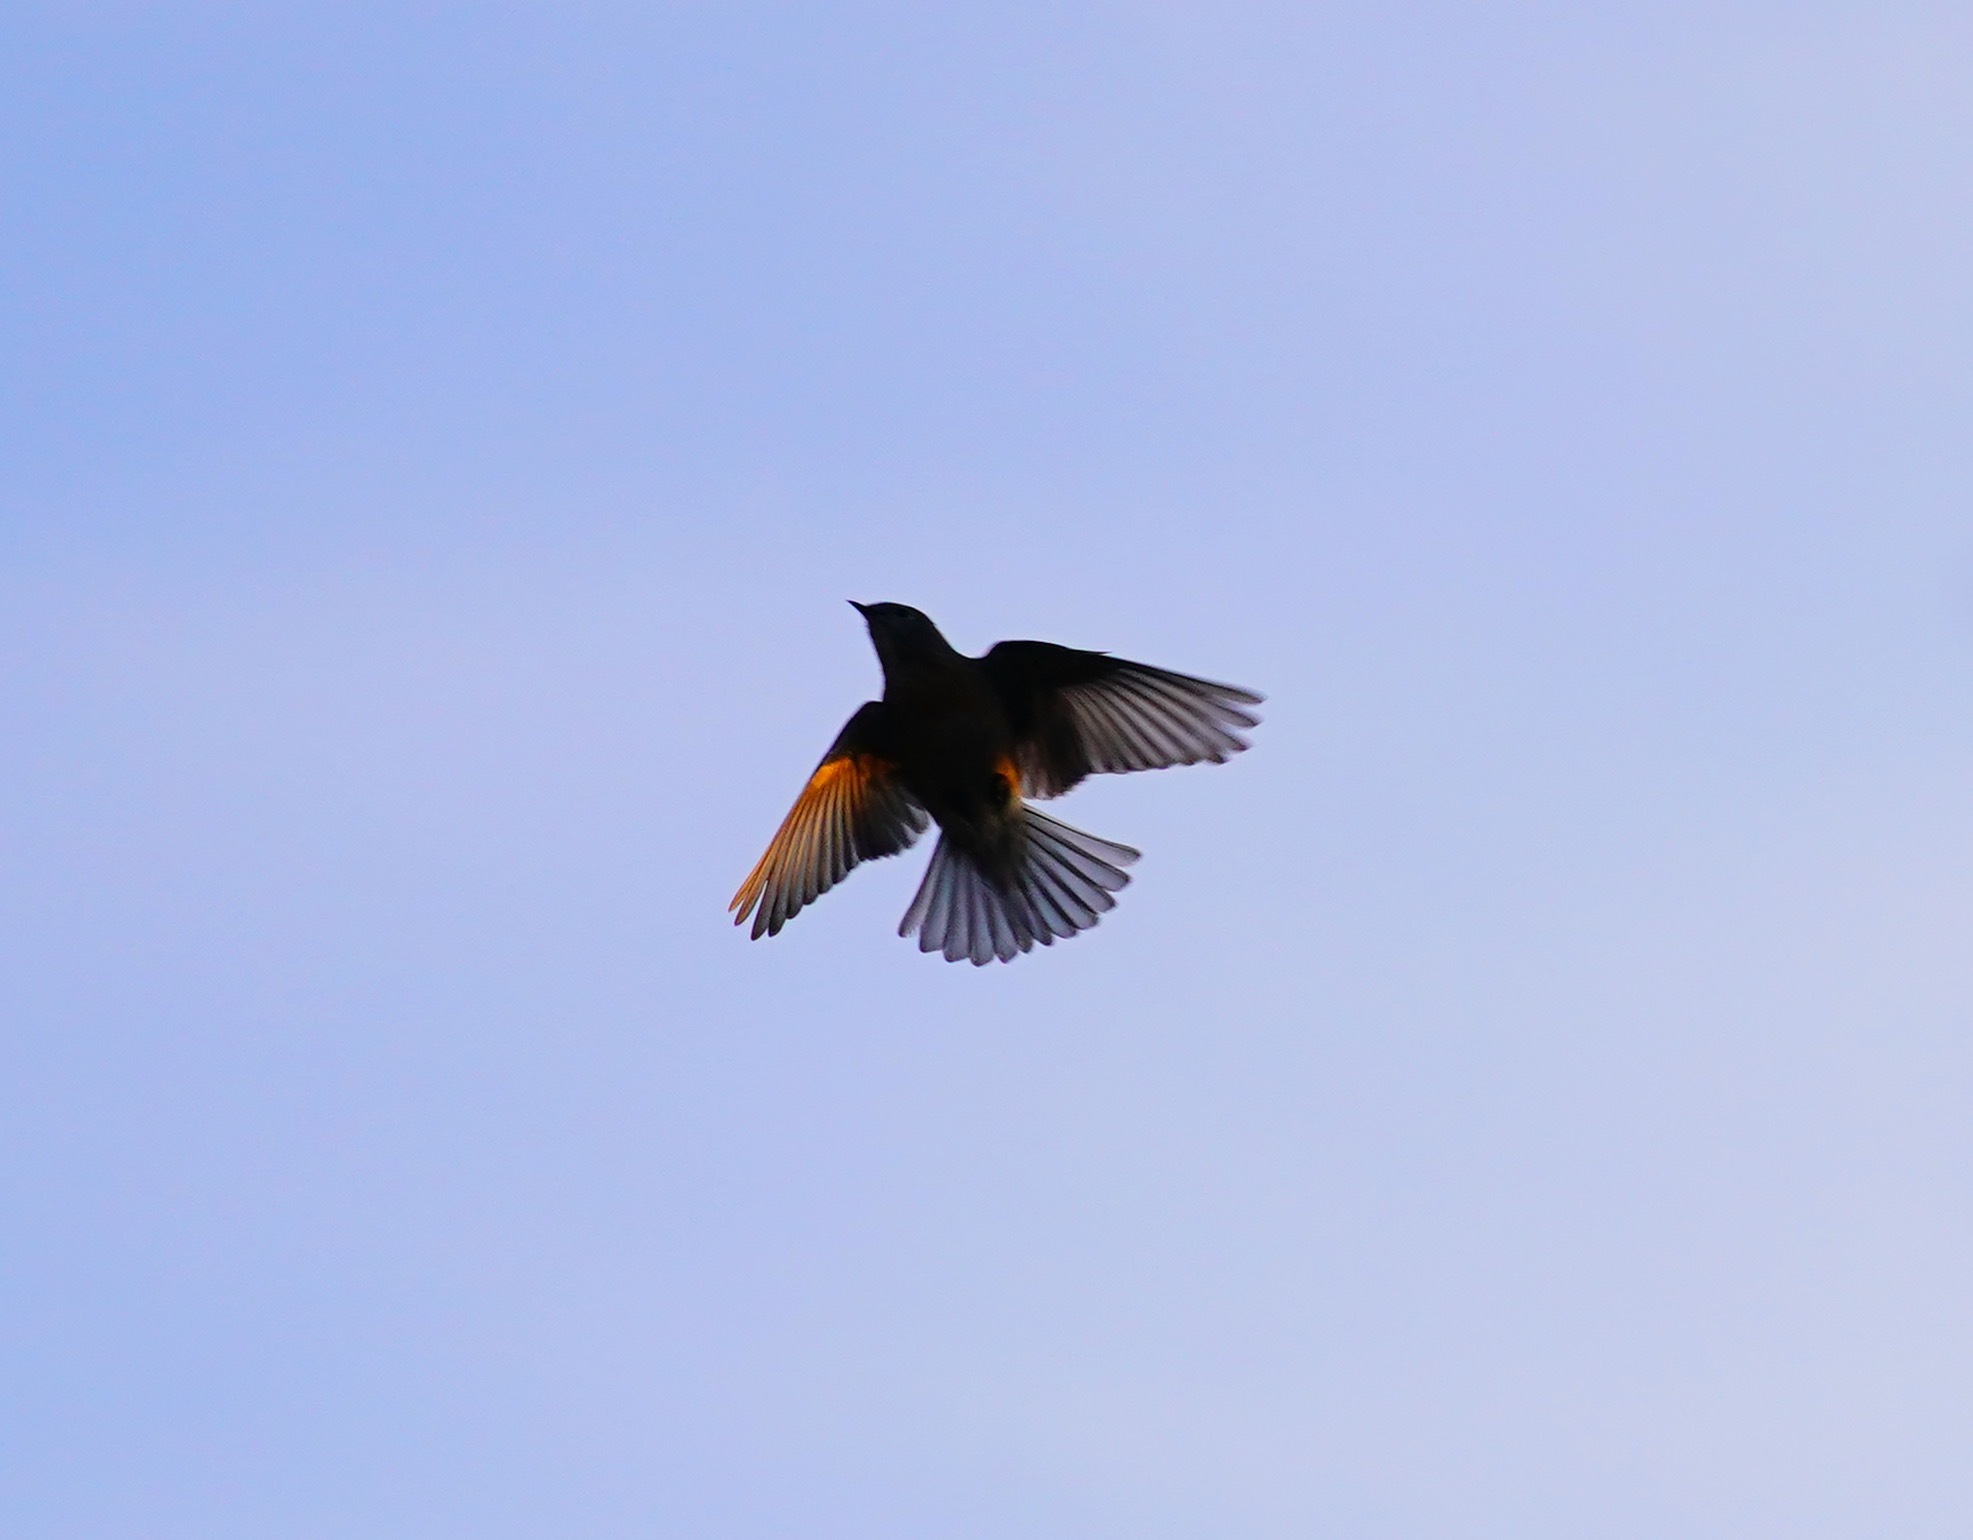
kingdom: Animalia
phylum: Chordata
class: Aves
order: Passeriformes
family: Turdidae
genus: Sialia
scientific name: Sialia mexicana
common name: Western bluebird
